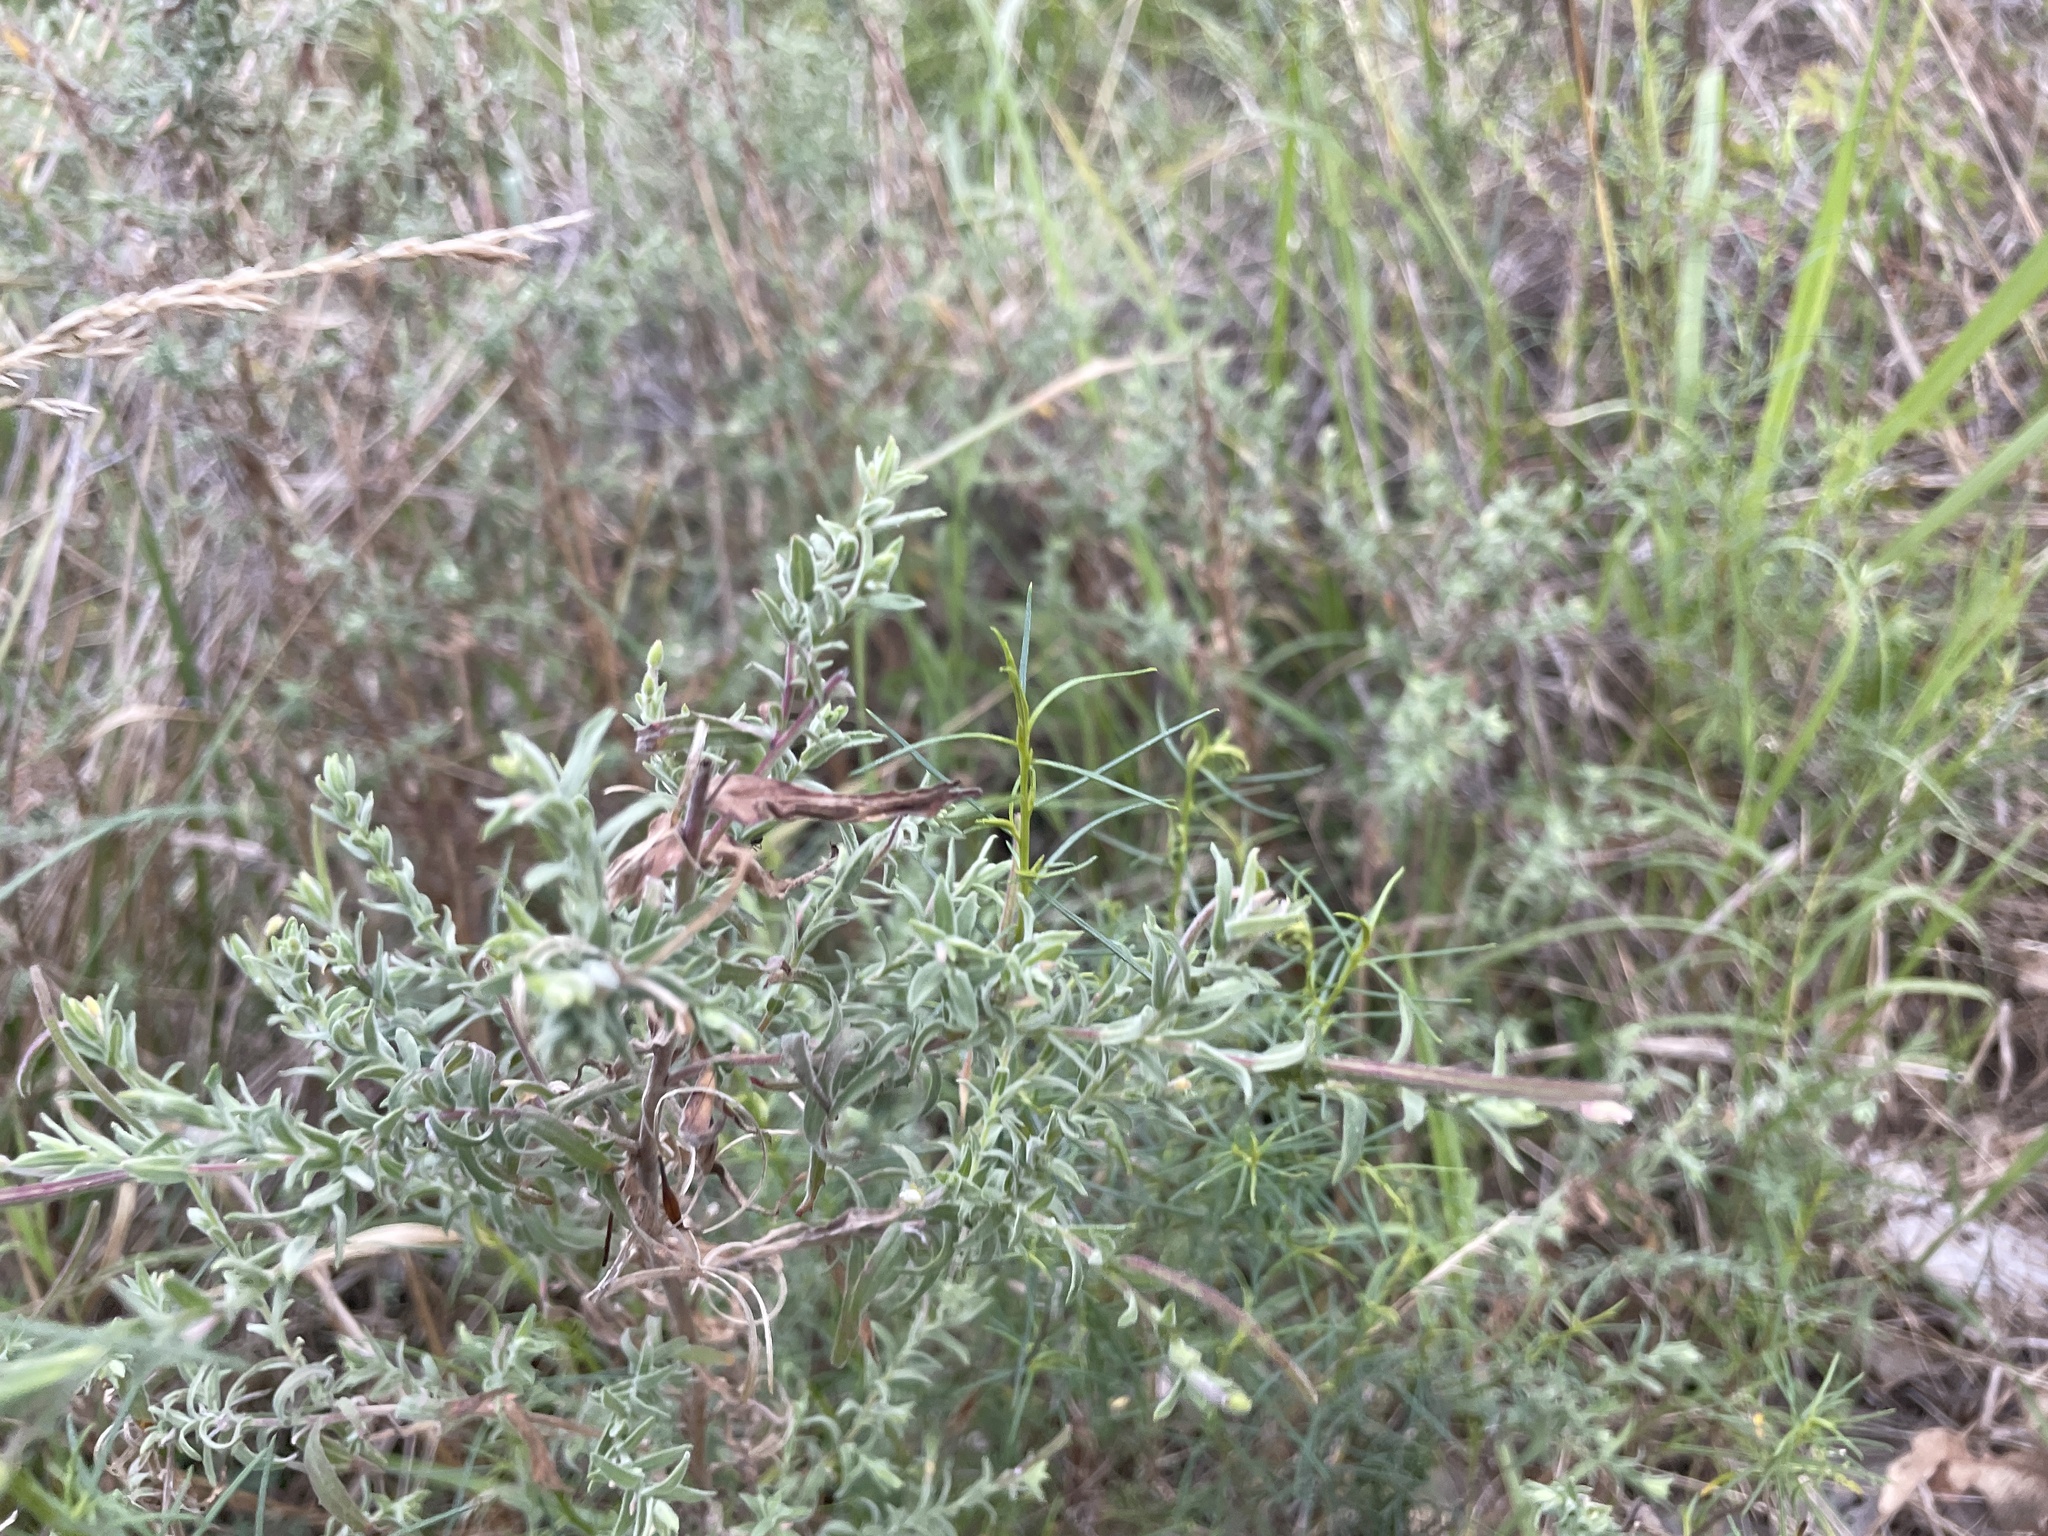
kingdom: Plantae
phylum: Tracheophyta
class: Magnoliopsida
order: Myrtales
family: Onagraceae
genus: Epilobium
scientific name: Epilobium hirtigerum
